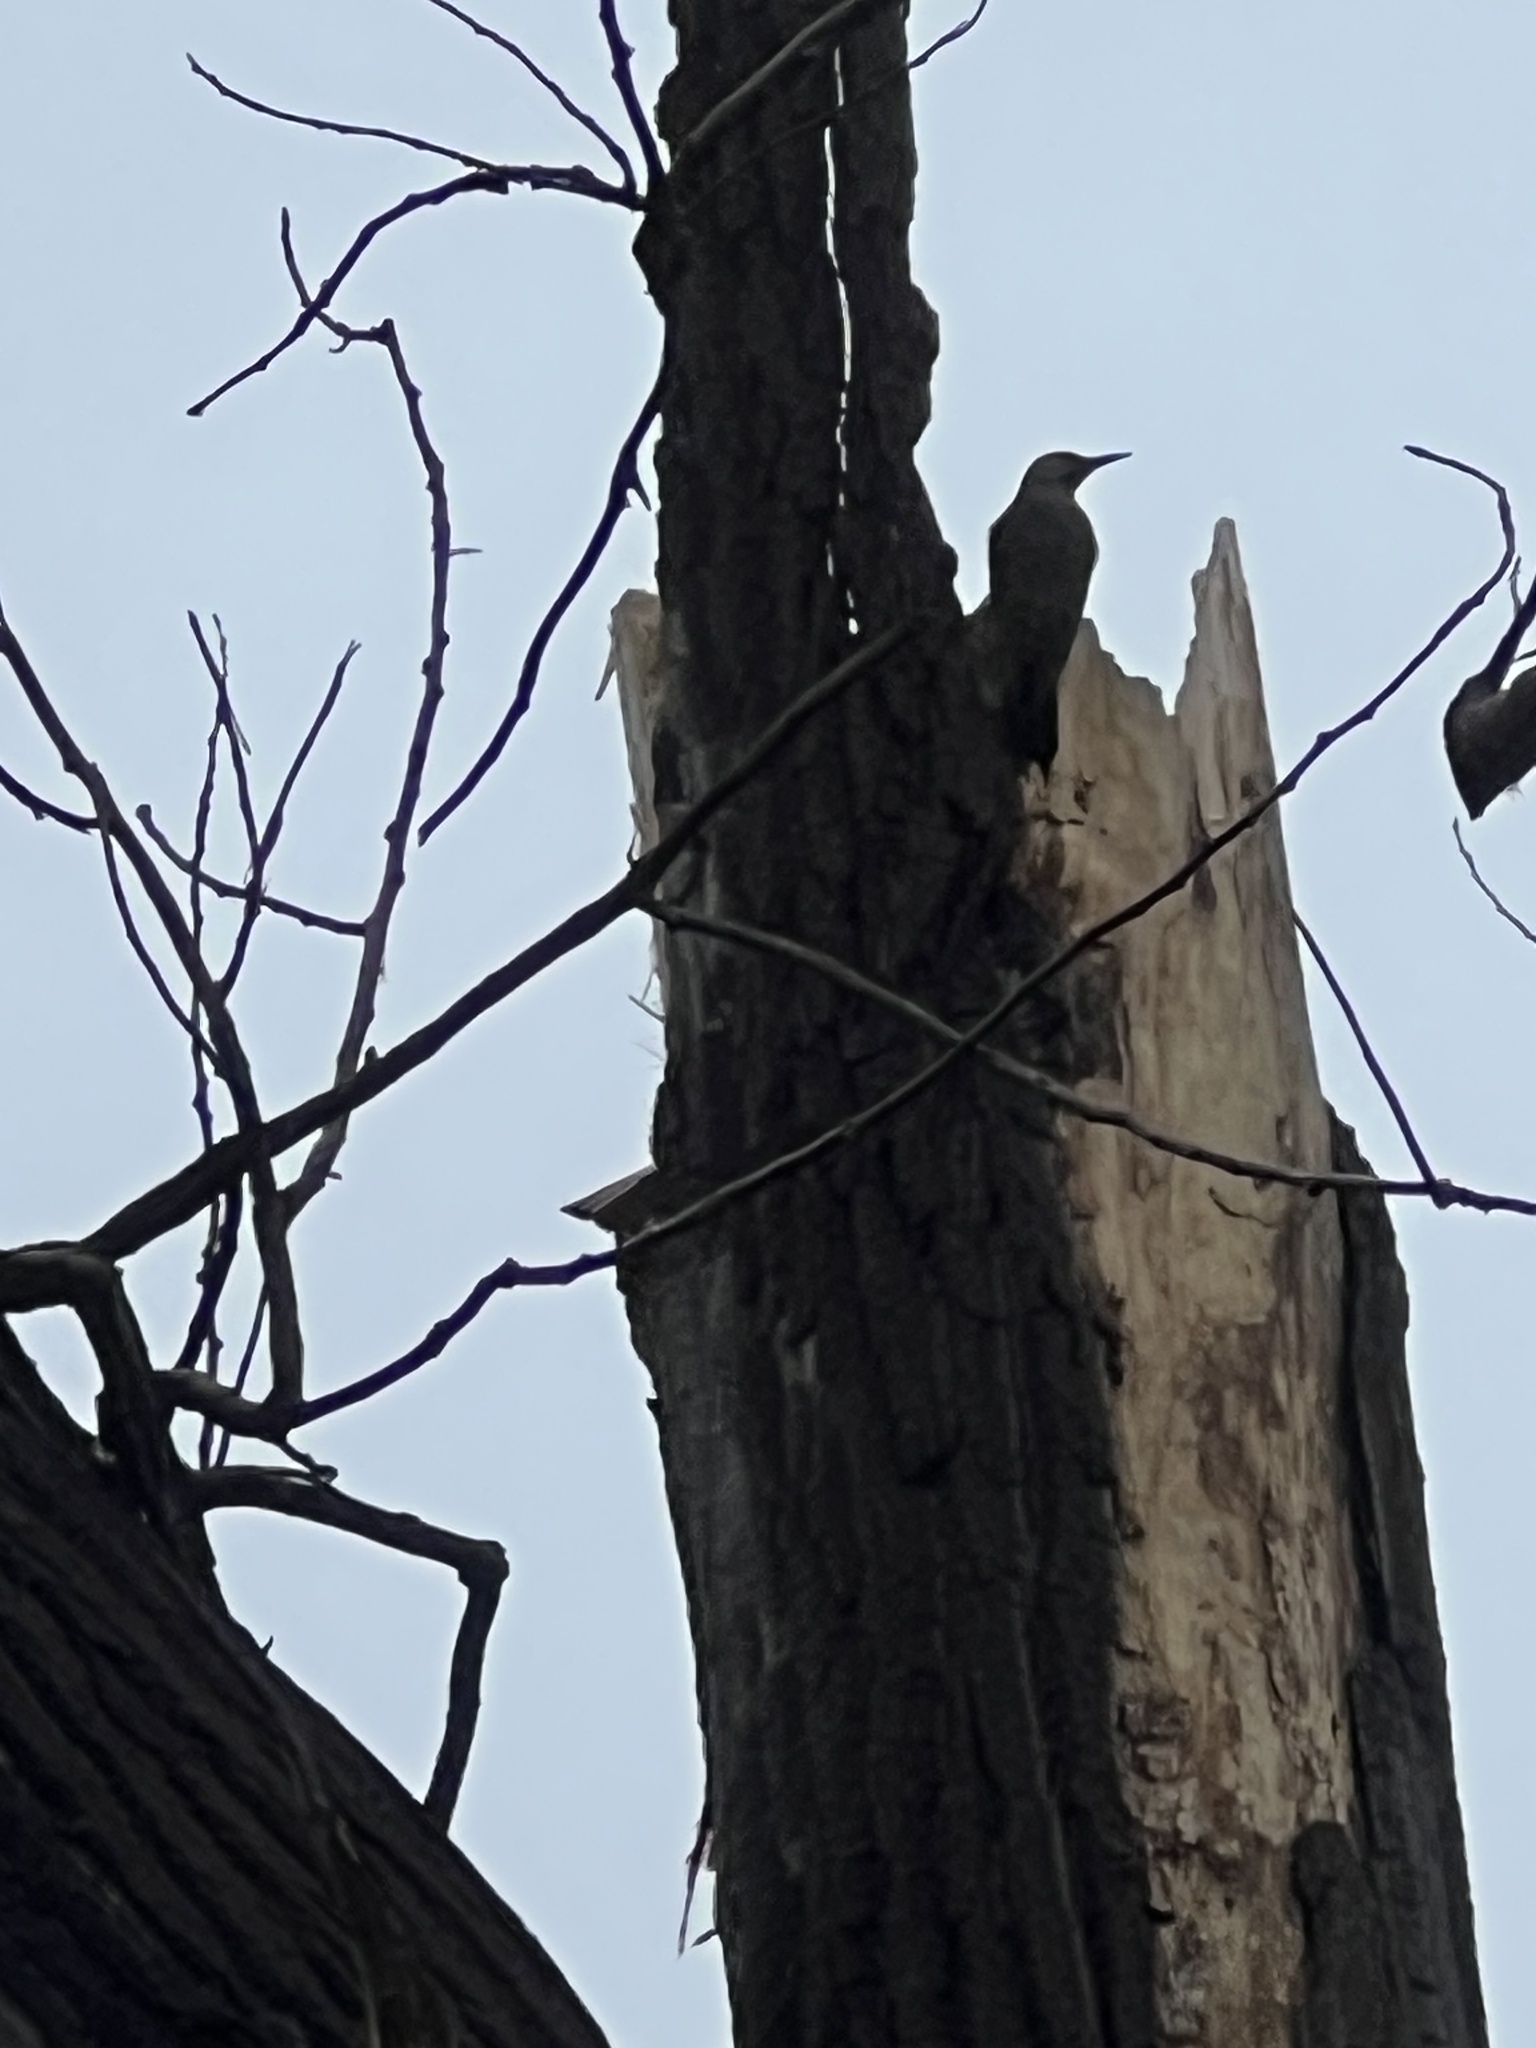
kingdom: Animalia
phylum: Chordata
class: Aves
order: Piciformes
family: Picidae
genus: Colaptes
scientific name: Colaptes auratus
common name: Northern flicker
